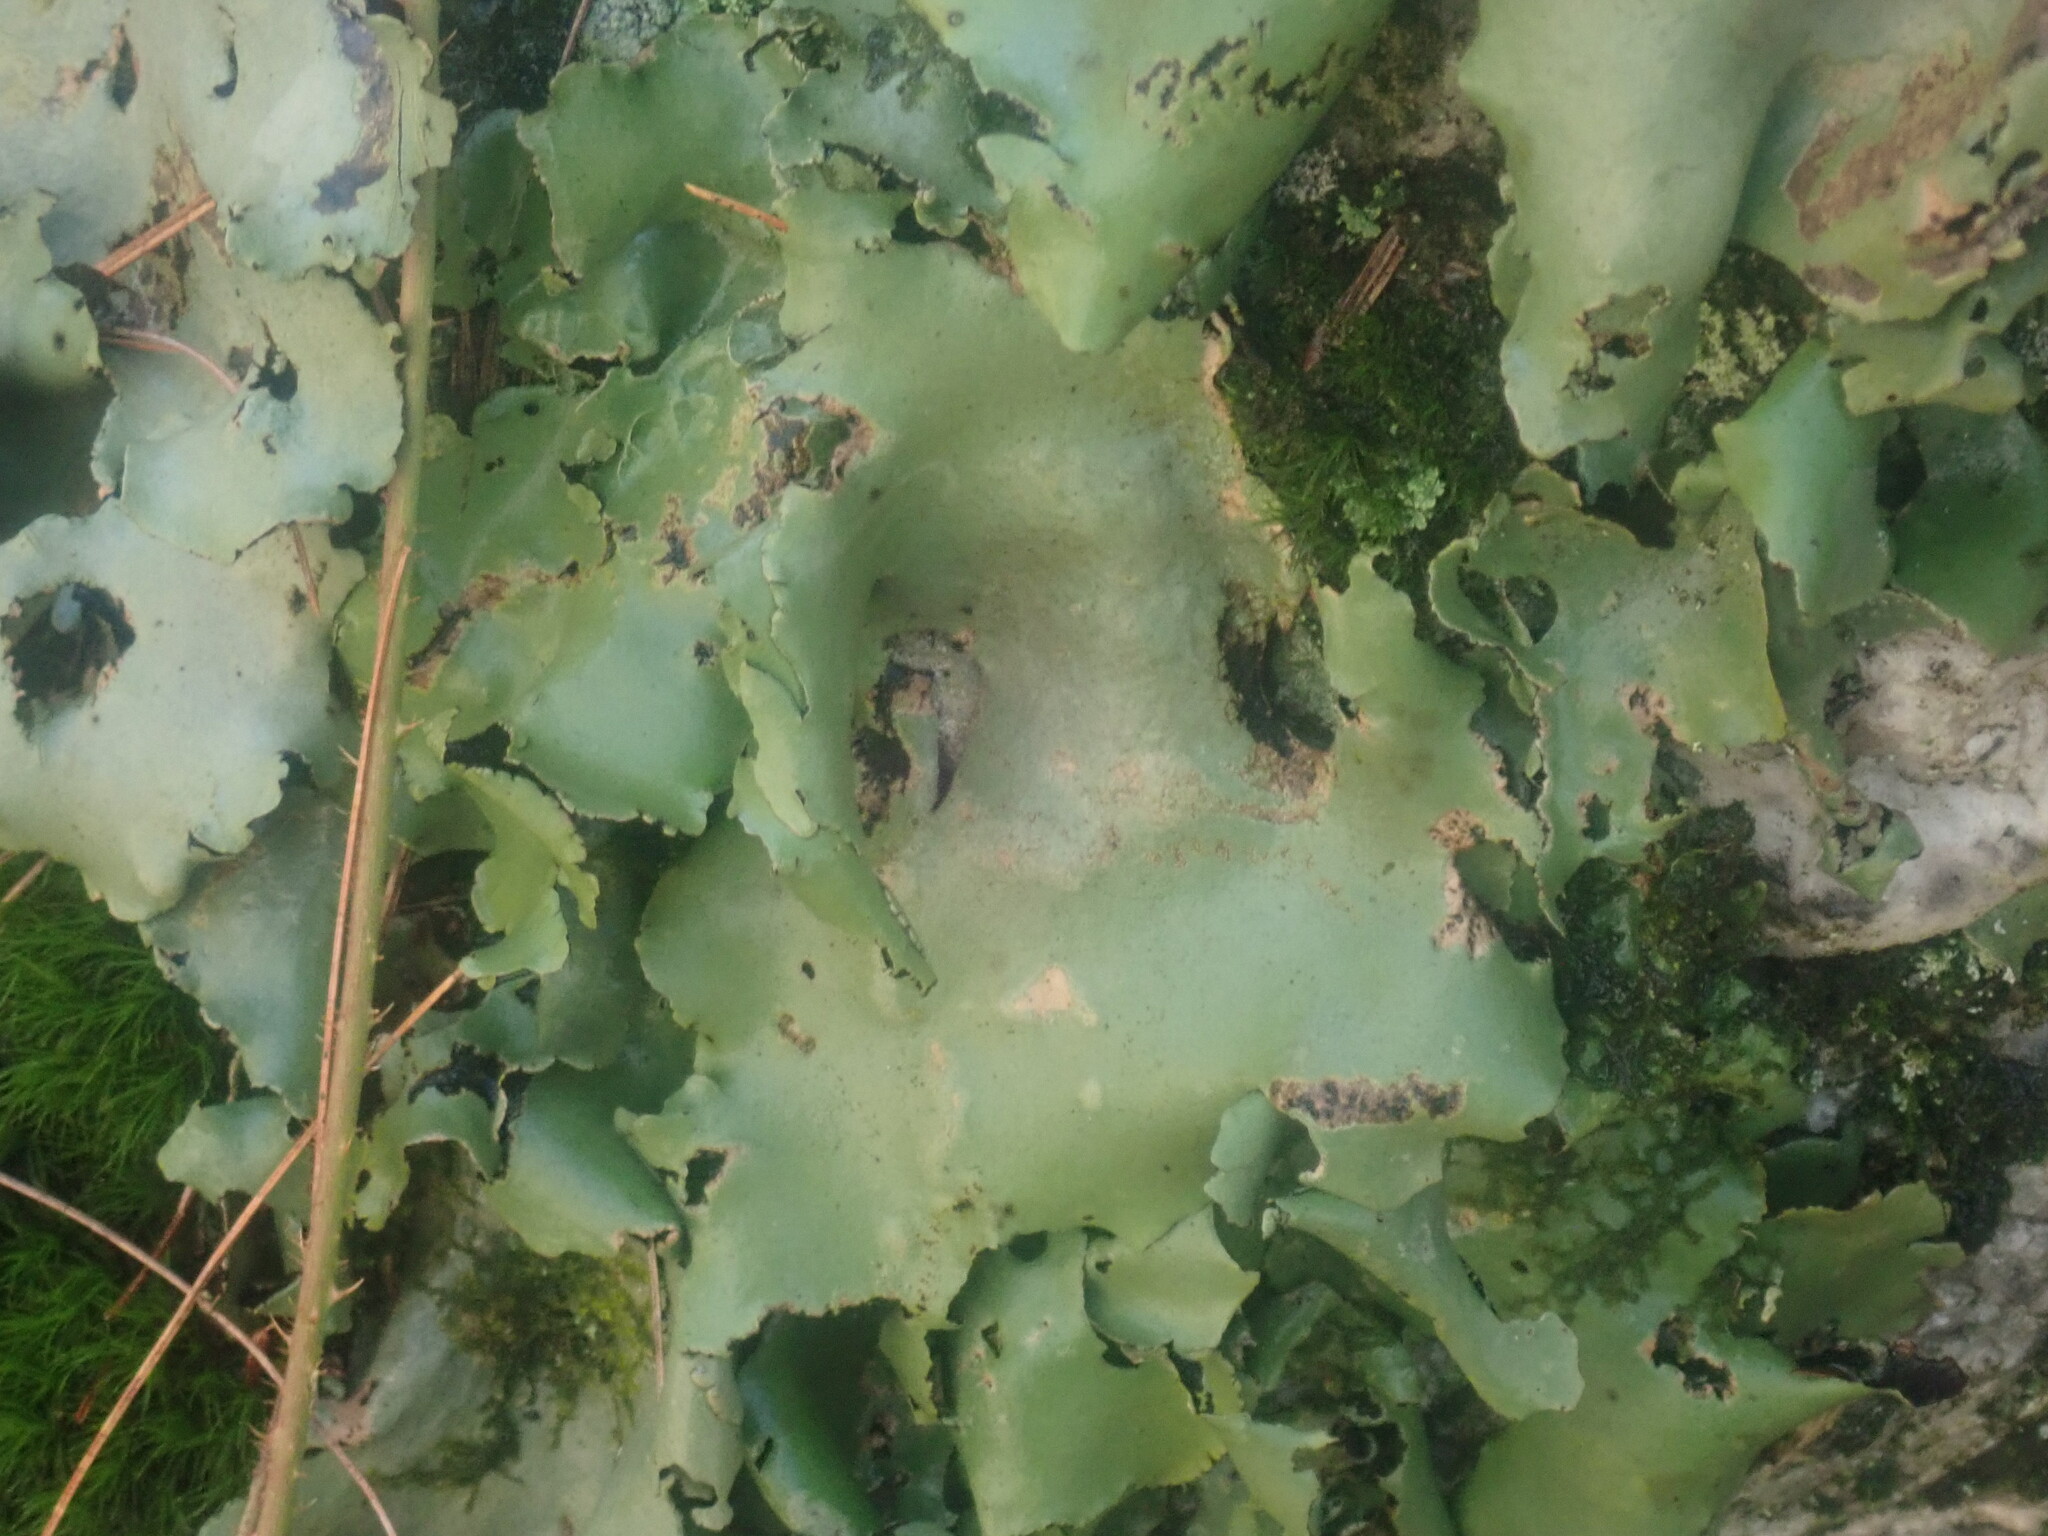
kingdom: Fungi
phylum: Ascomycota
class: Lecanoromycetes
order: Umbilicariales
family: Umbilicariaceae
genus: Umbilicaria
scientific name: Umbilicaria mammulata
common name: Smooth rock tripe
